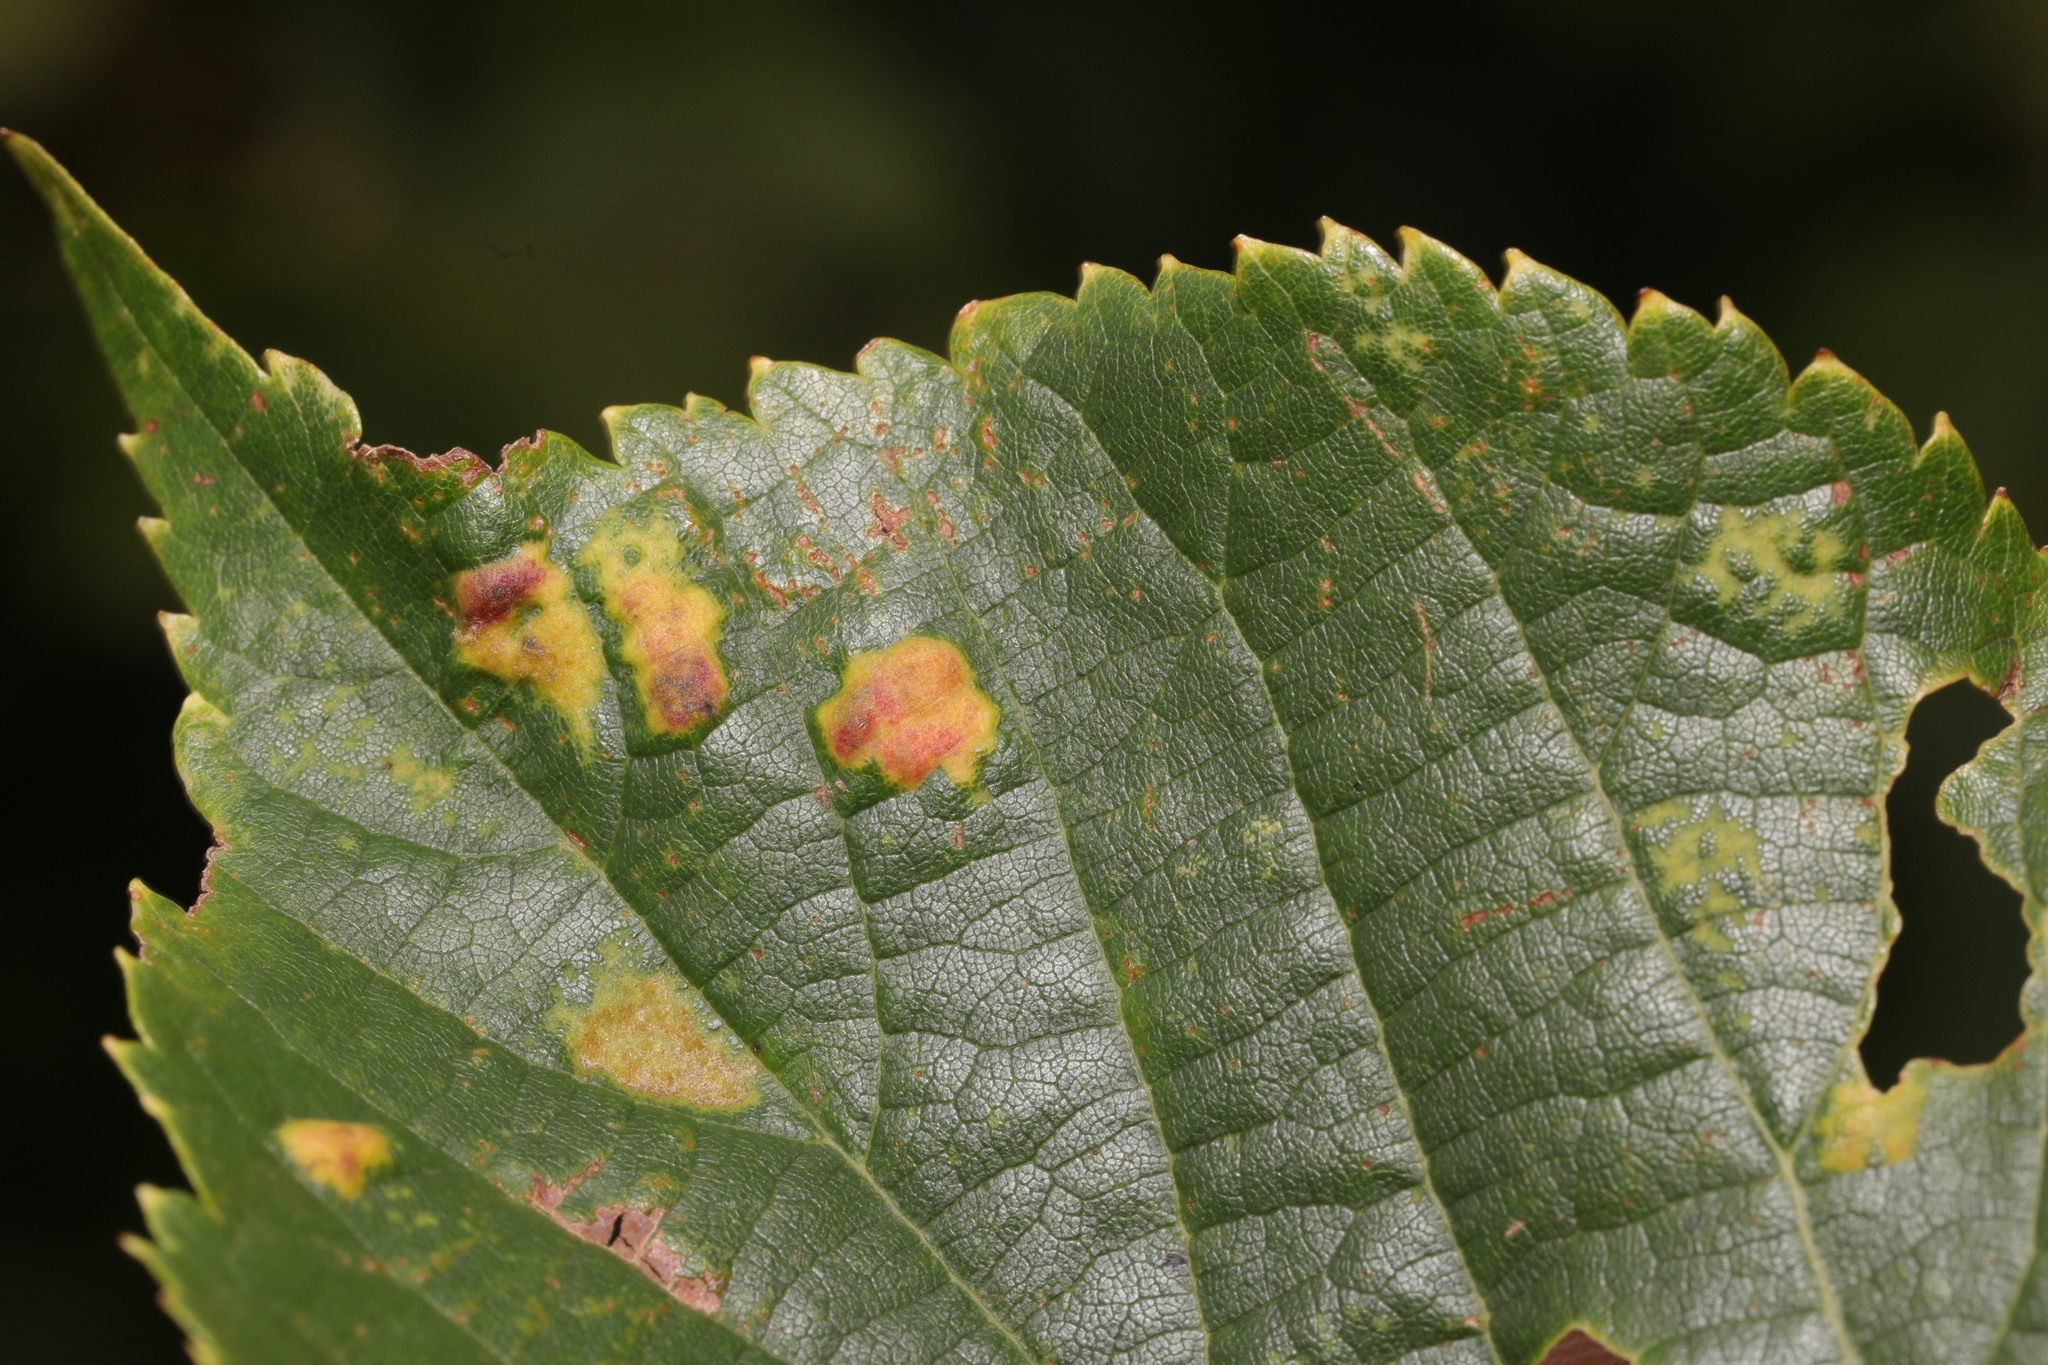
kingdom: Animalia
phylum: Arthropoda
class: Arachnida
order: Trombidiformes
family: Eriophyidae
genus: Eriophyes
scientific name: Eriophyes leiosoma
